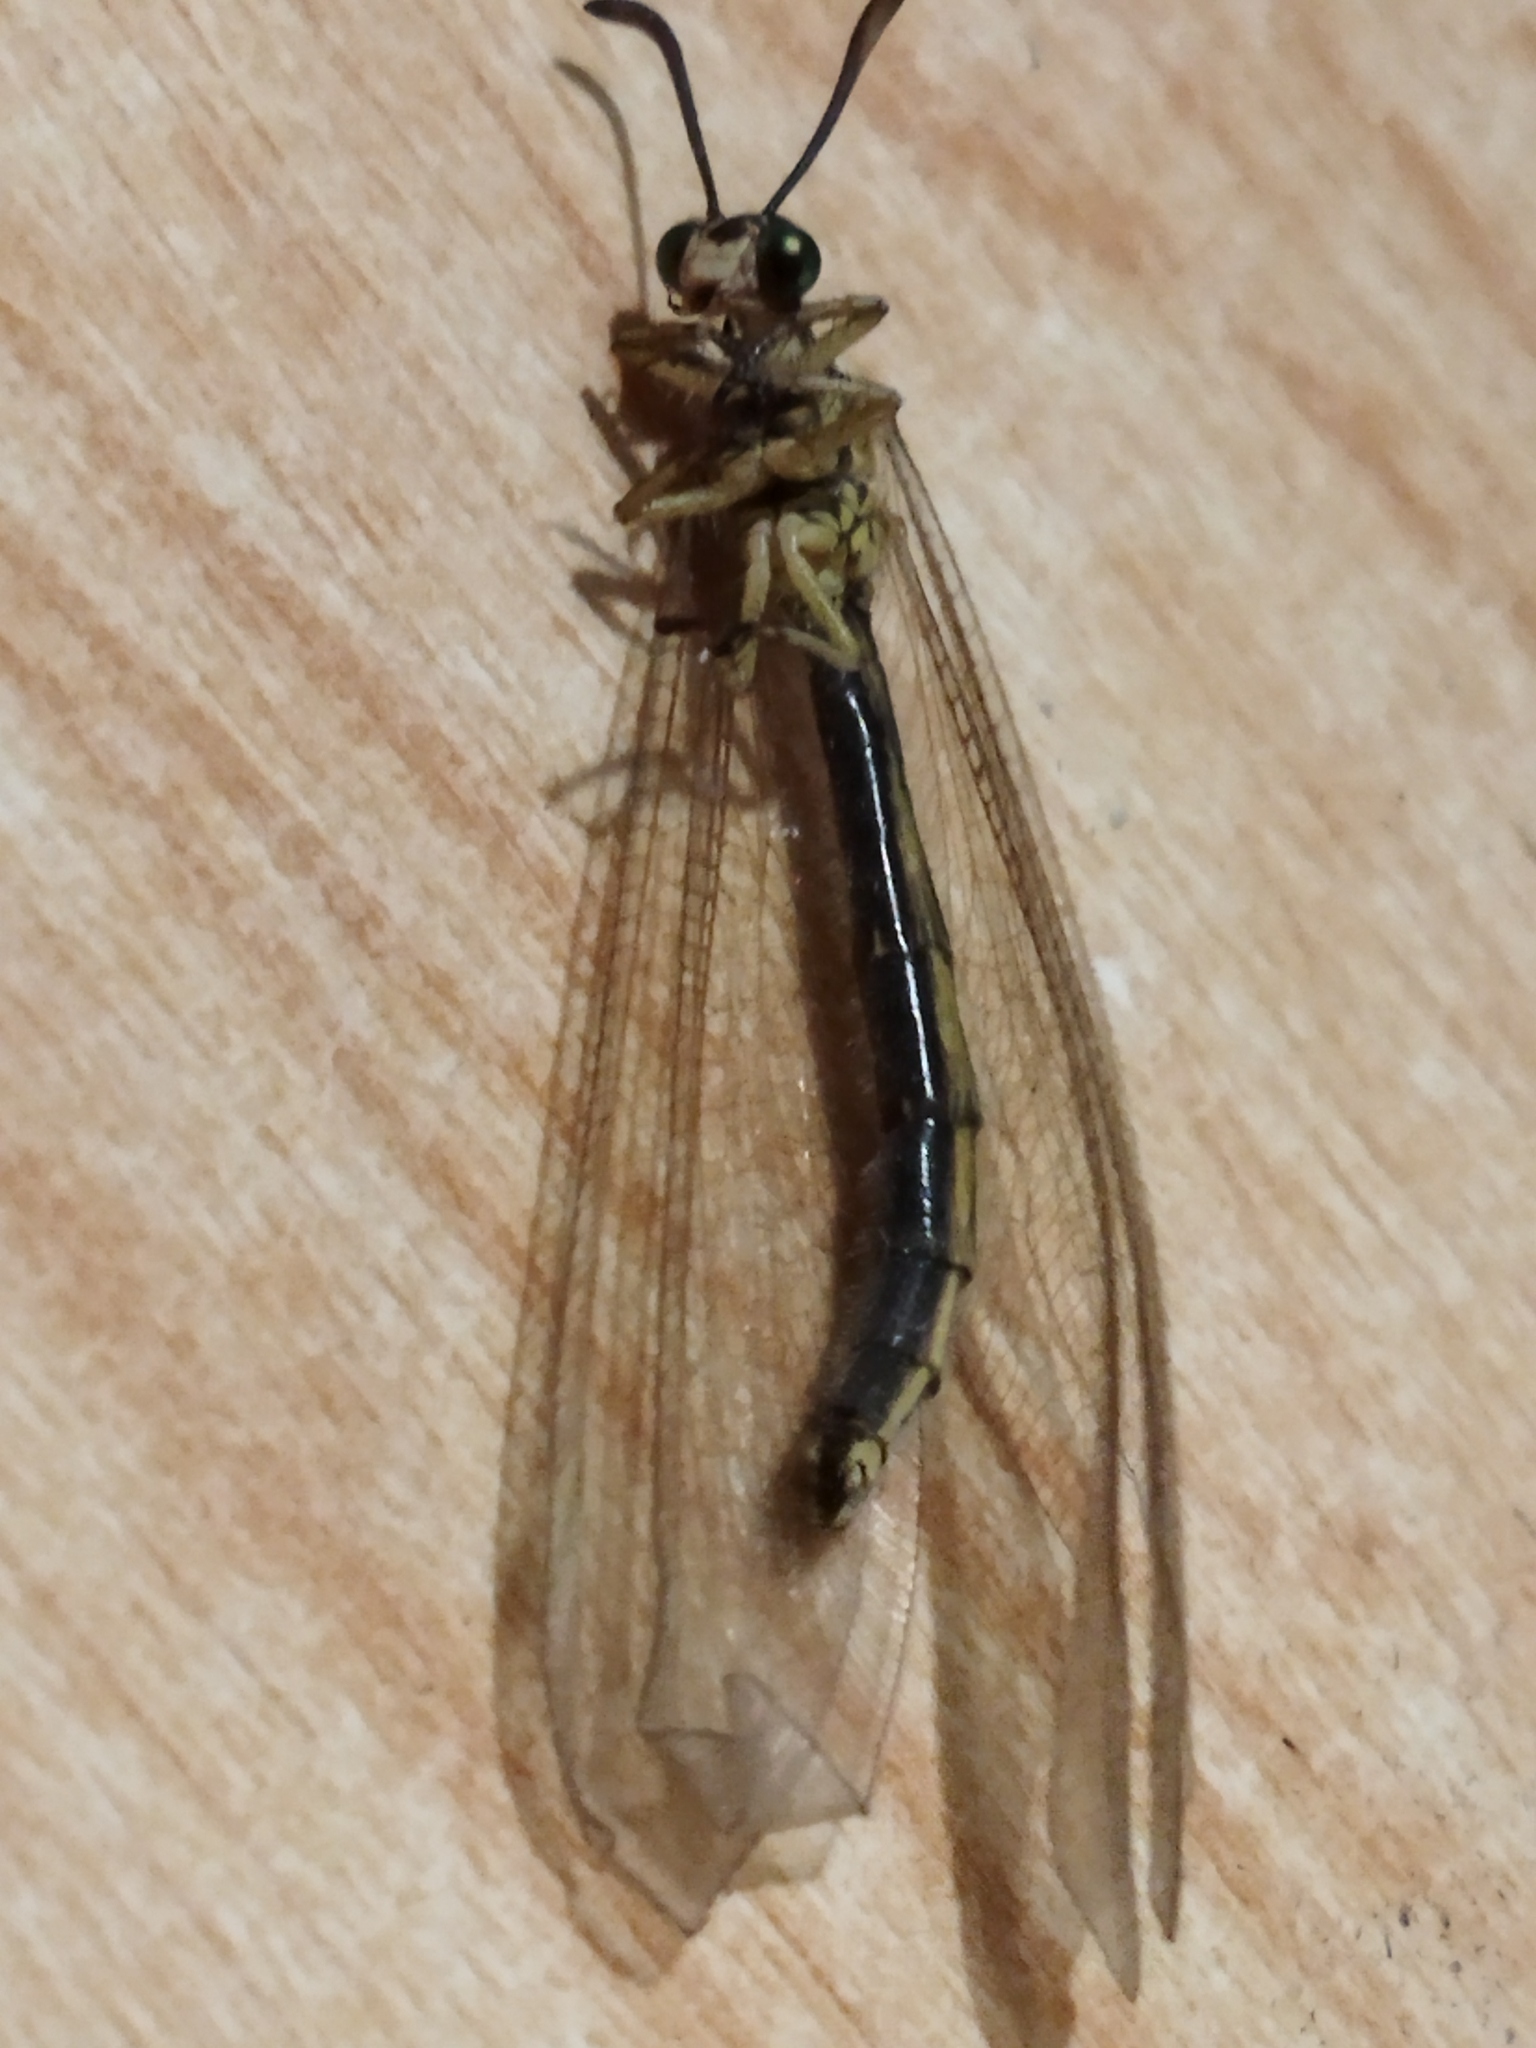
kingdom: Animalia
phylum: Arthropoda
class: Insecta
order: Neuroptera
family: Myrmeleontidae
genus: Myrmecaelurus
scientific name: Myrmecaelurus trigrammus
